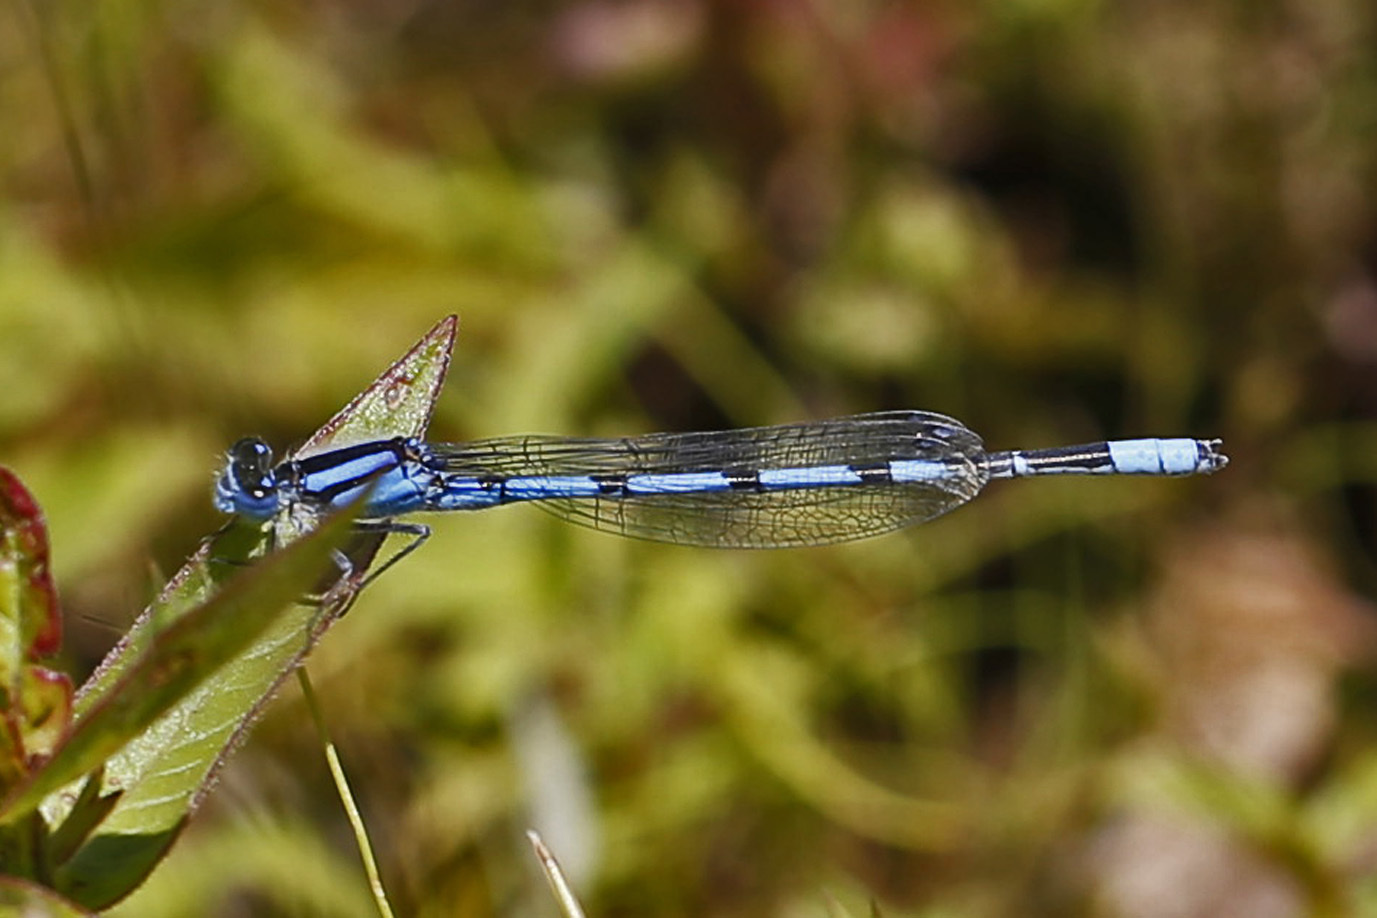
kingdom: Animalia
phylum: Arthropoda
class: Insecta
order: Odonata
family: Coenagrionidae
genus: Enallagma
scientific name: Enallagma civile
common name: Damselfly
